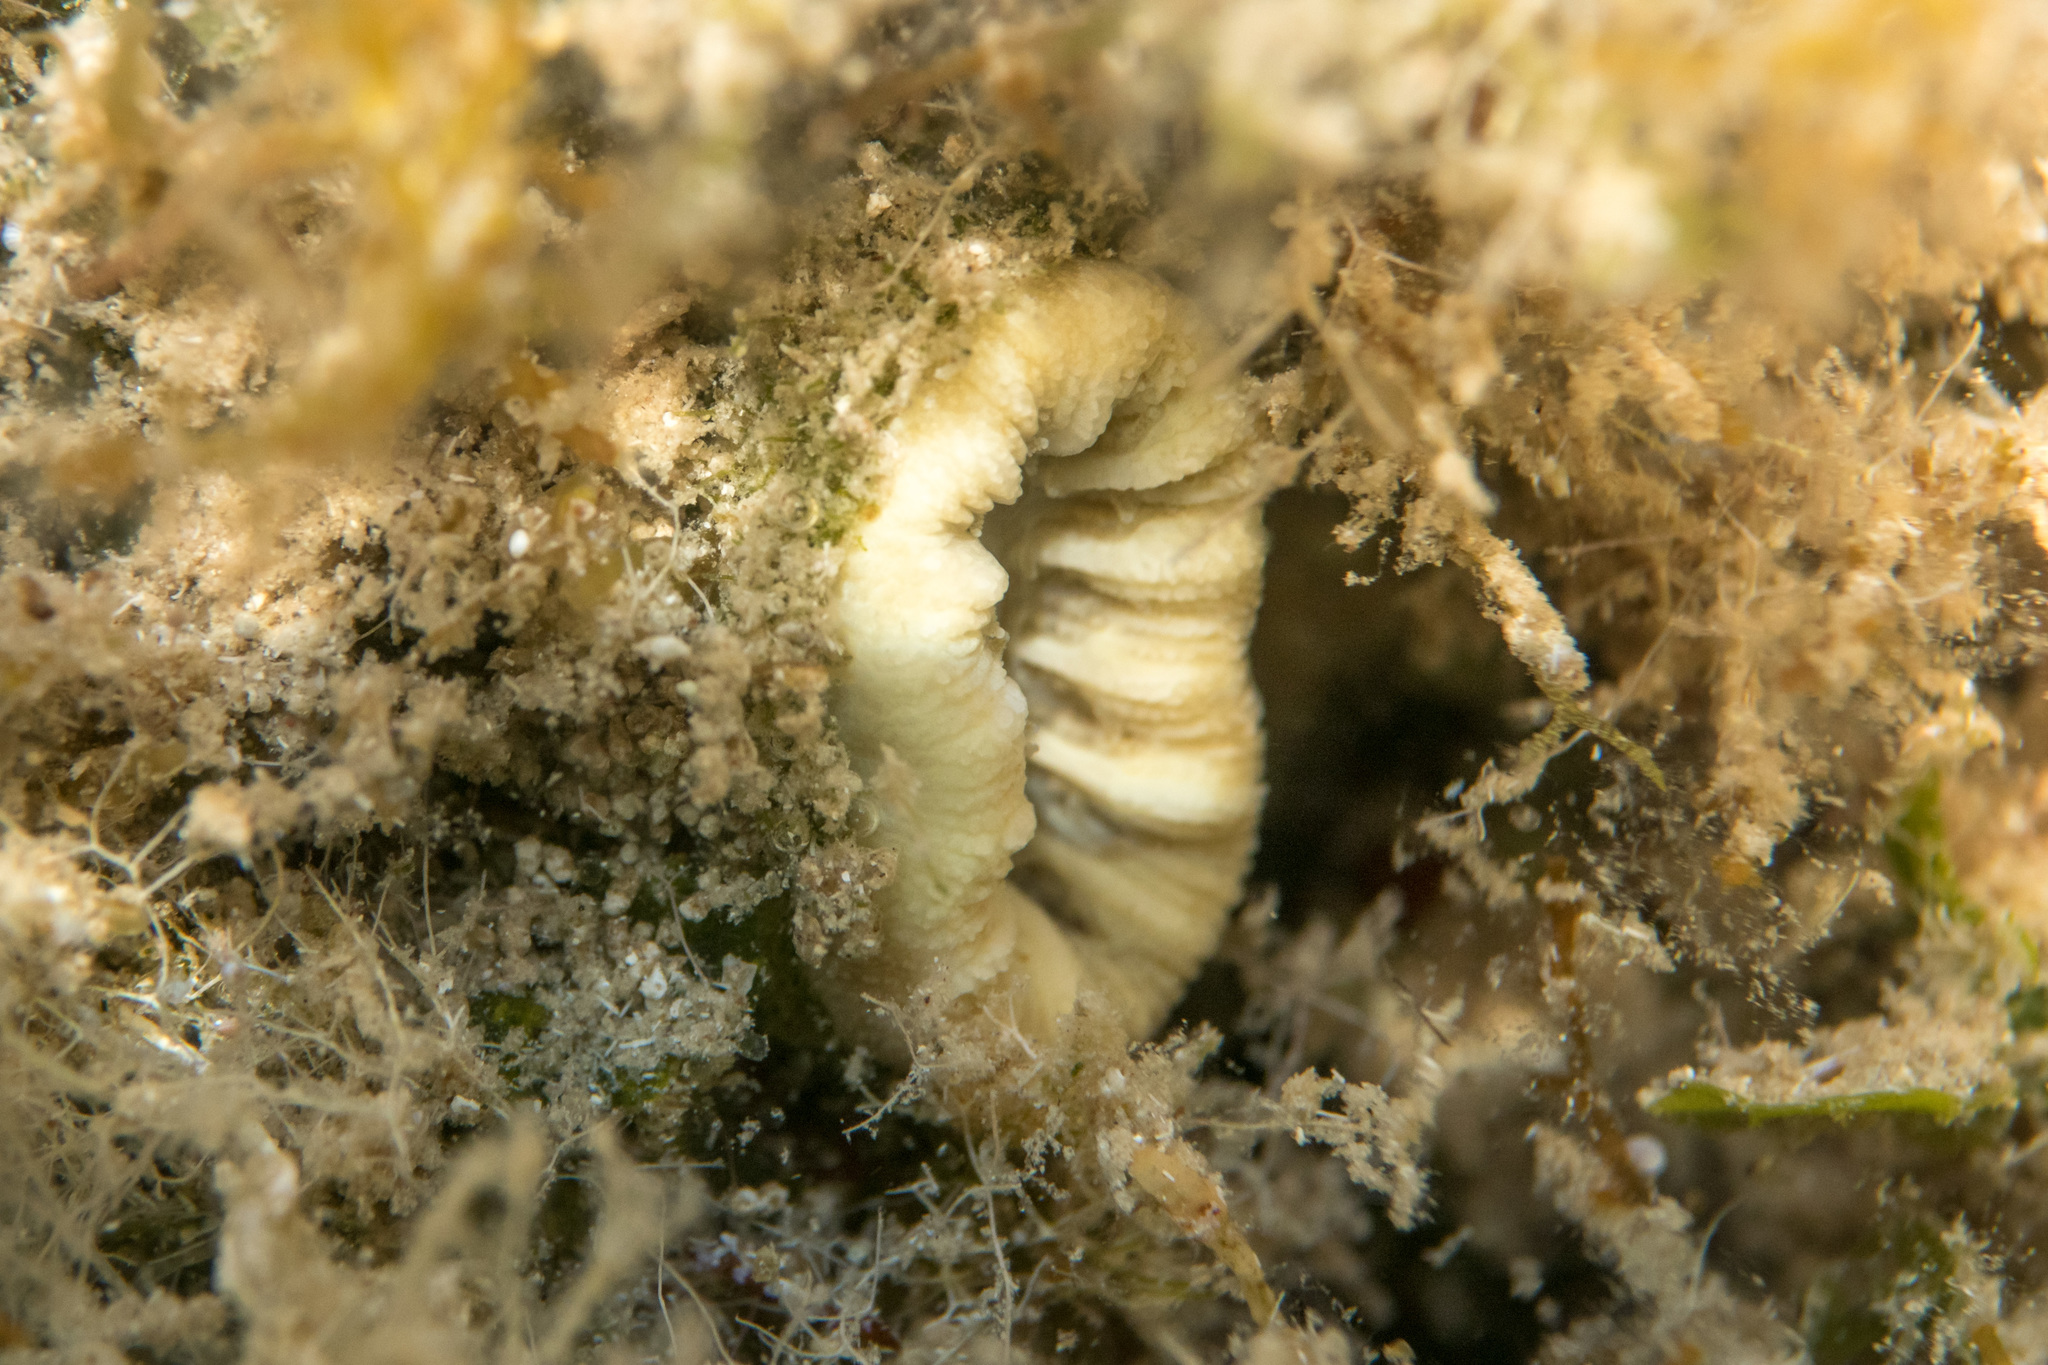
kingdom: Animalia
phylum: Cnidaria
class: Anthozoa
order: Scleractinia
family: Dendrophylliidae
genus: Balanophyllia
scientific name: Balanophyllia europaea
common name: Scarlet coral
